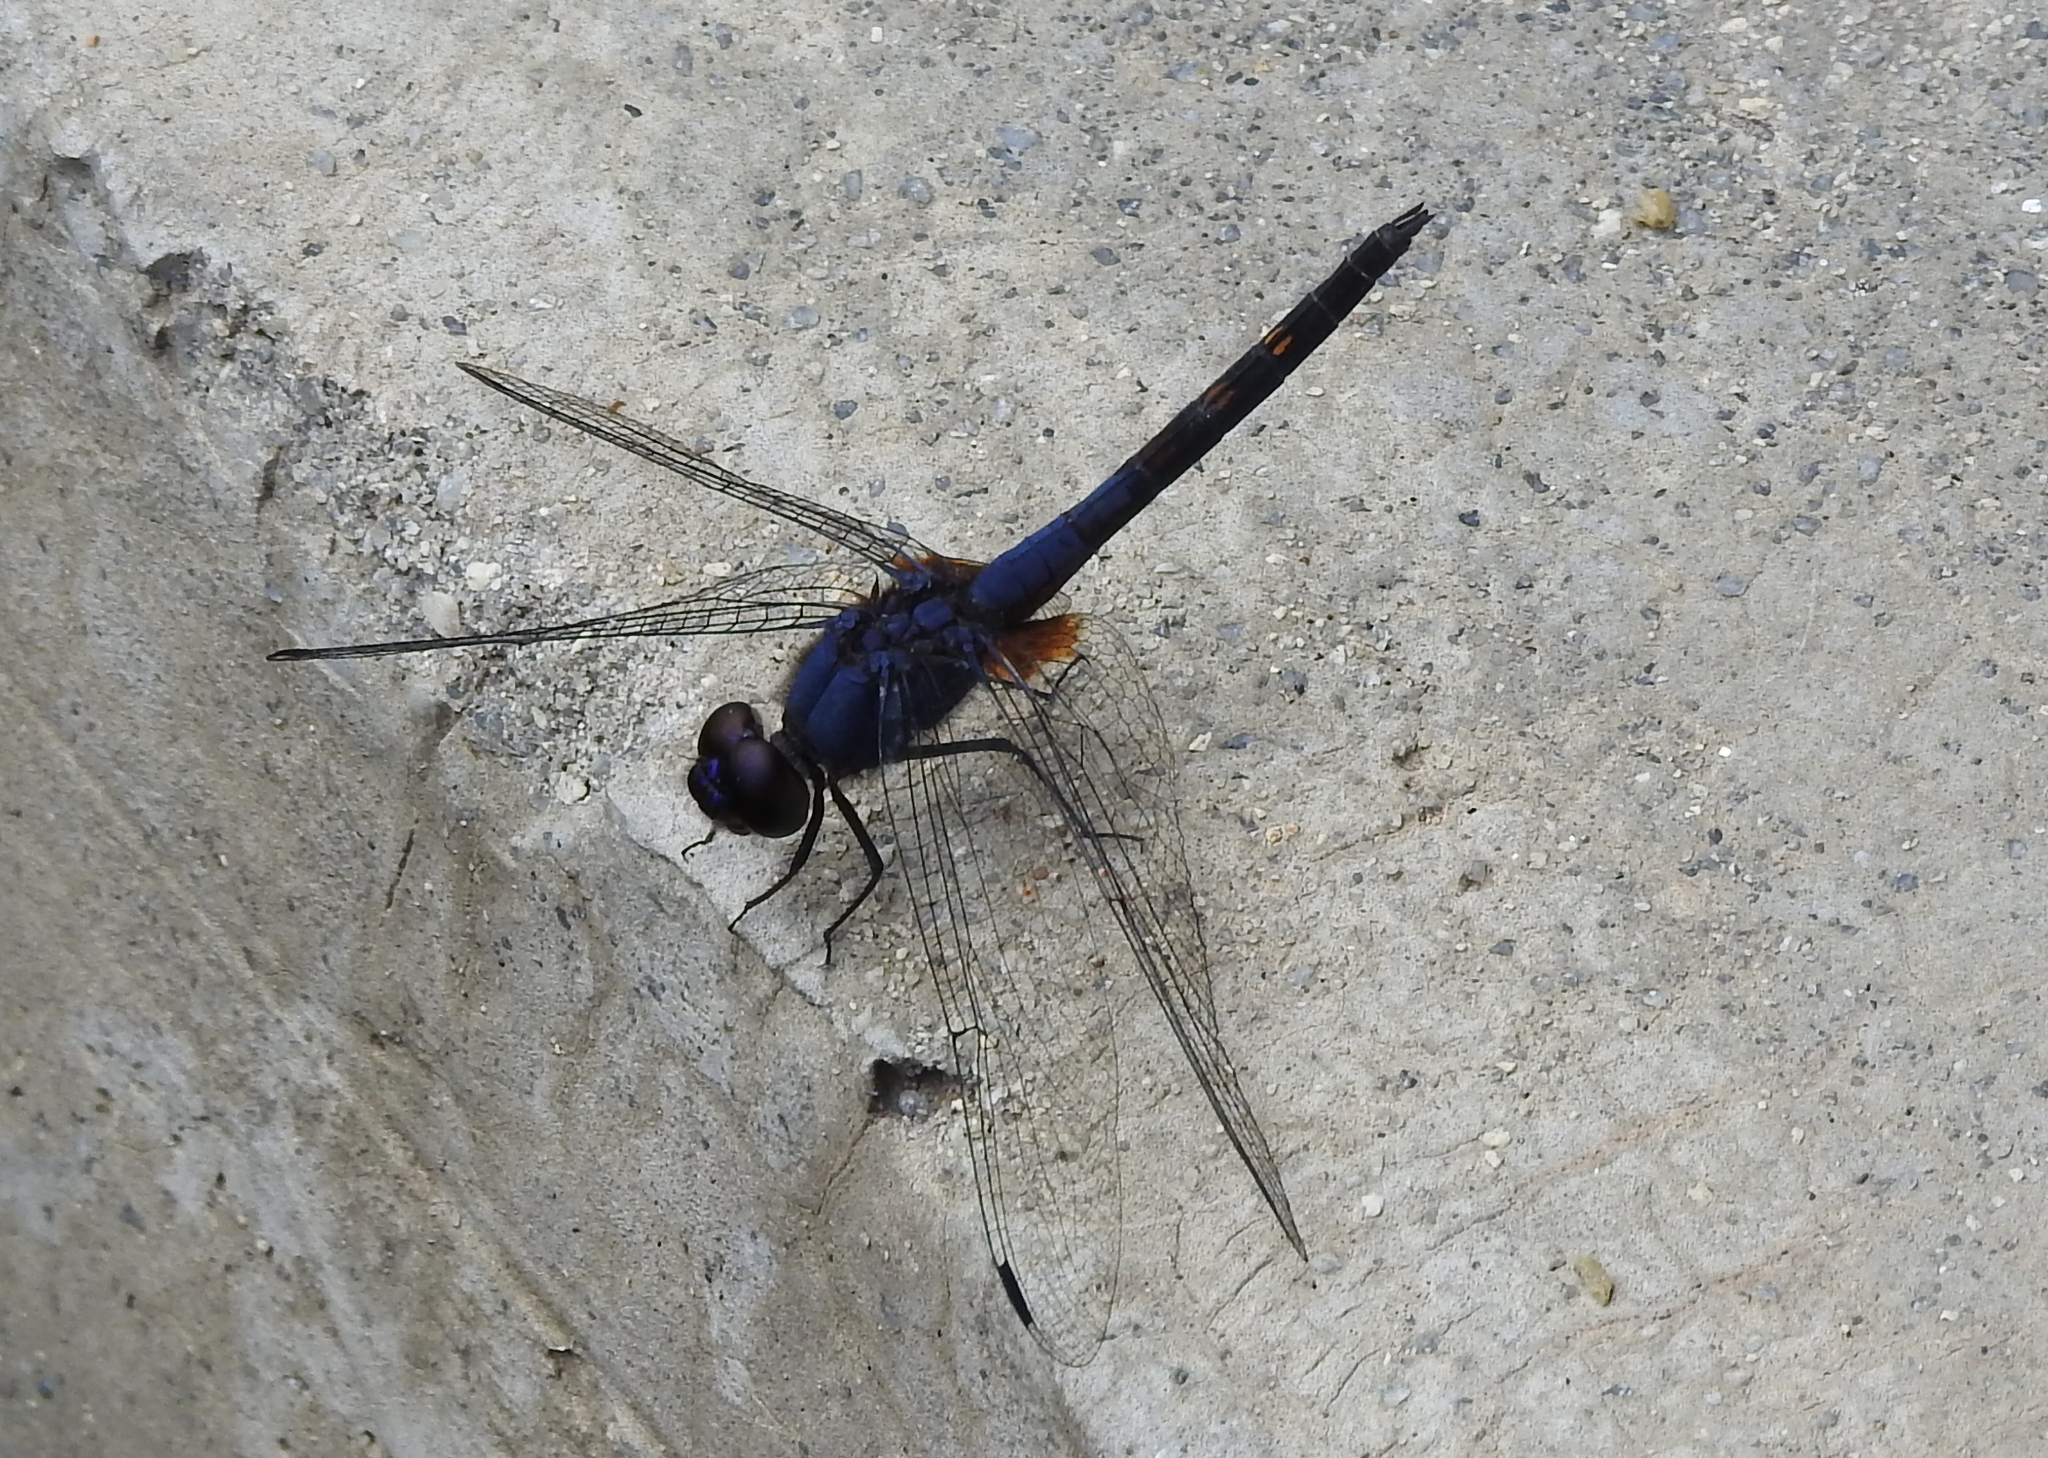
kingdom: Animalia
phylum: Arthropoda
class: Insecta
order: Odonata
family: Libellulidae
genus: Trithemis
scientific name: Trithemis festiva
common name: Indigo dropwing
